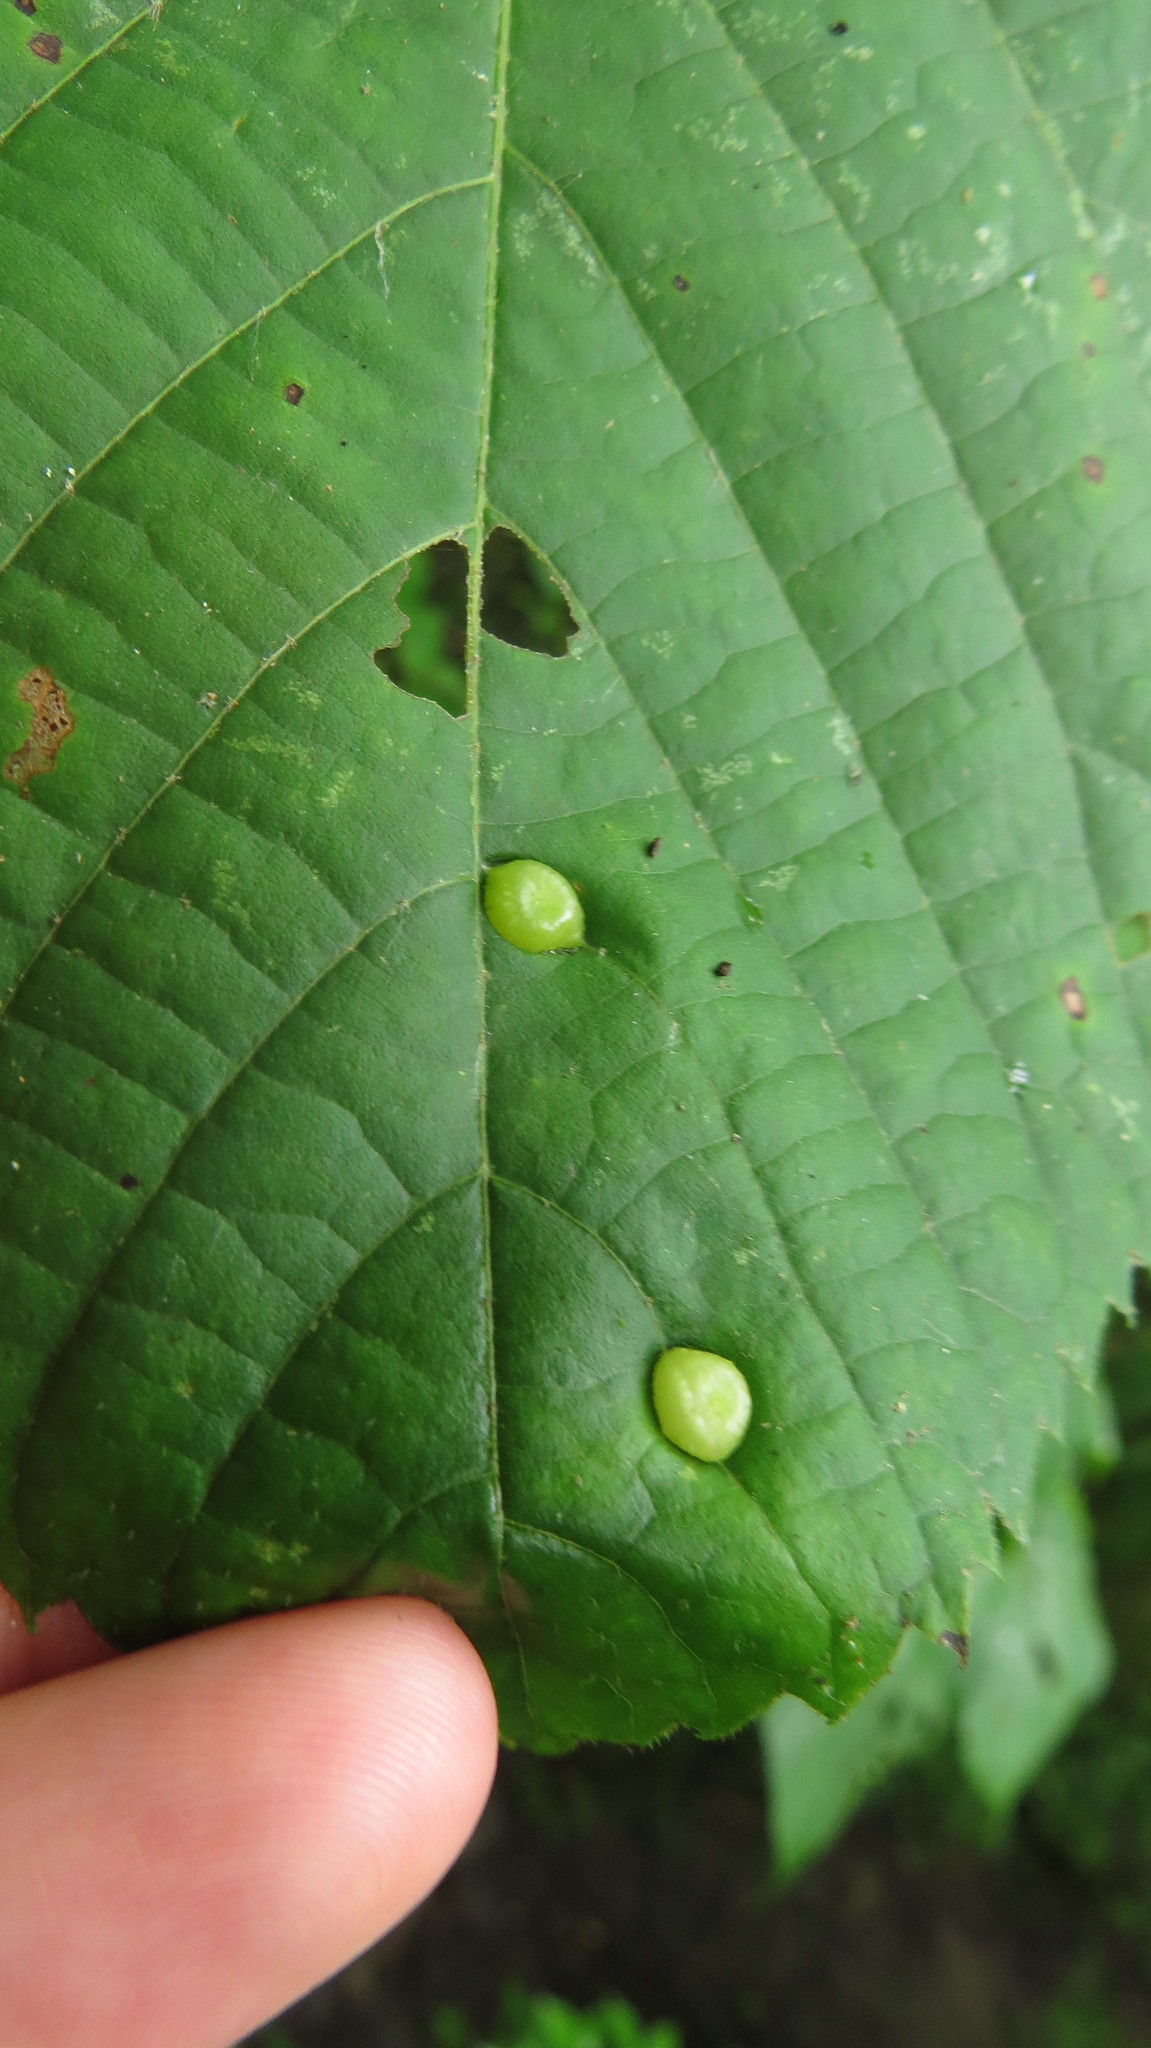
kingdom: Animalia
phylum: Arthropoda
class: Insecta
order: Diptera
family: Cecidomyiidae
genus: Contarinia
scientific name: Contarinia verrucicola
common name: Linden wart gall midge
